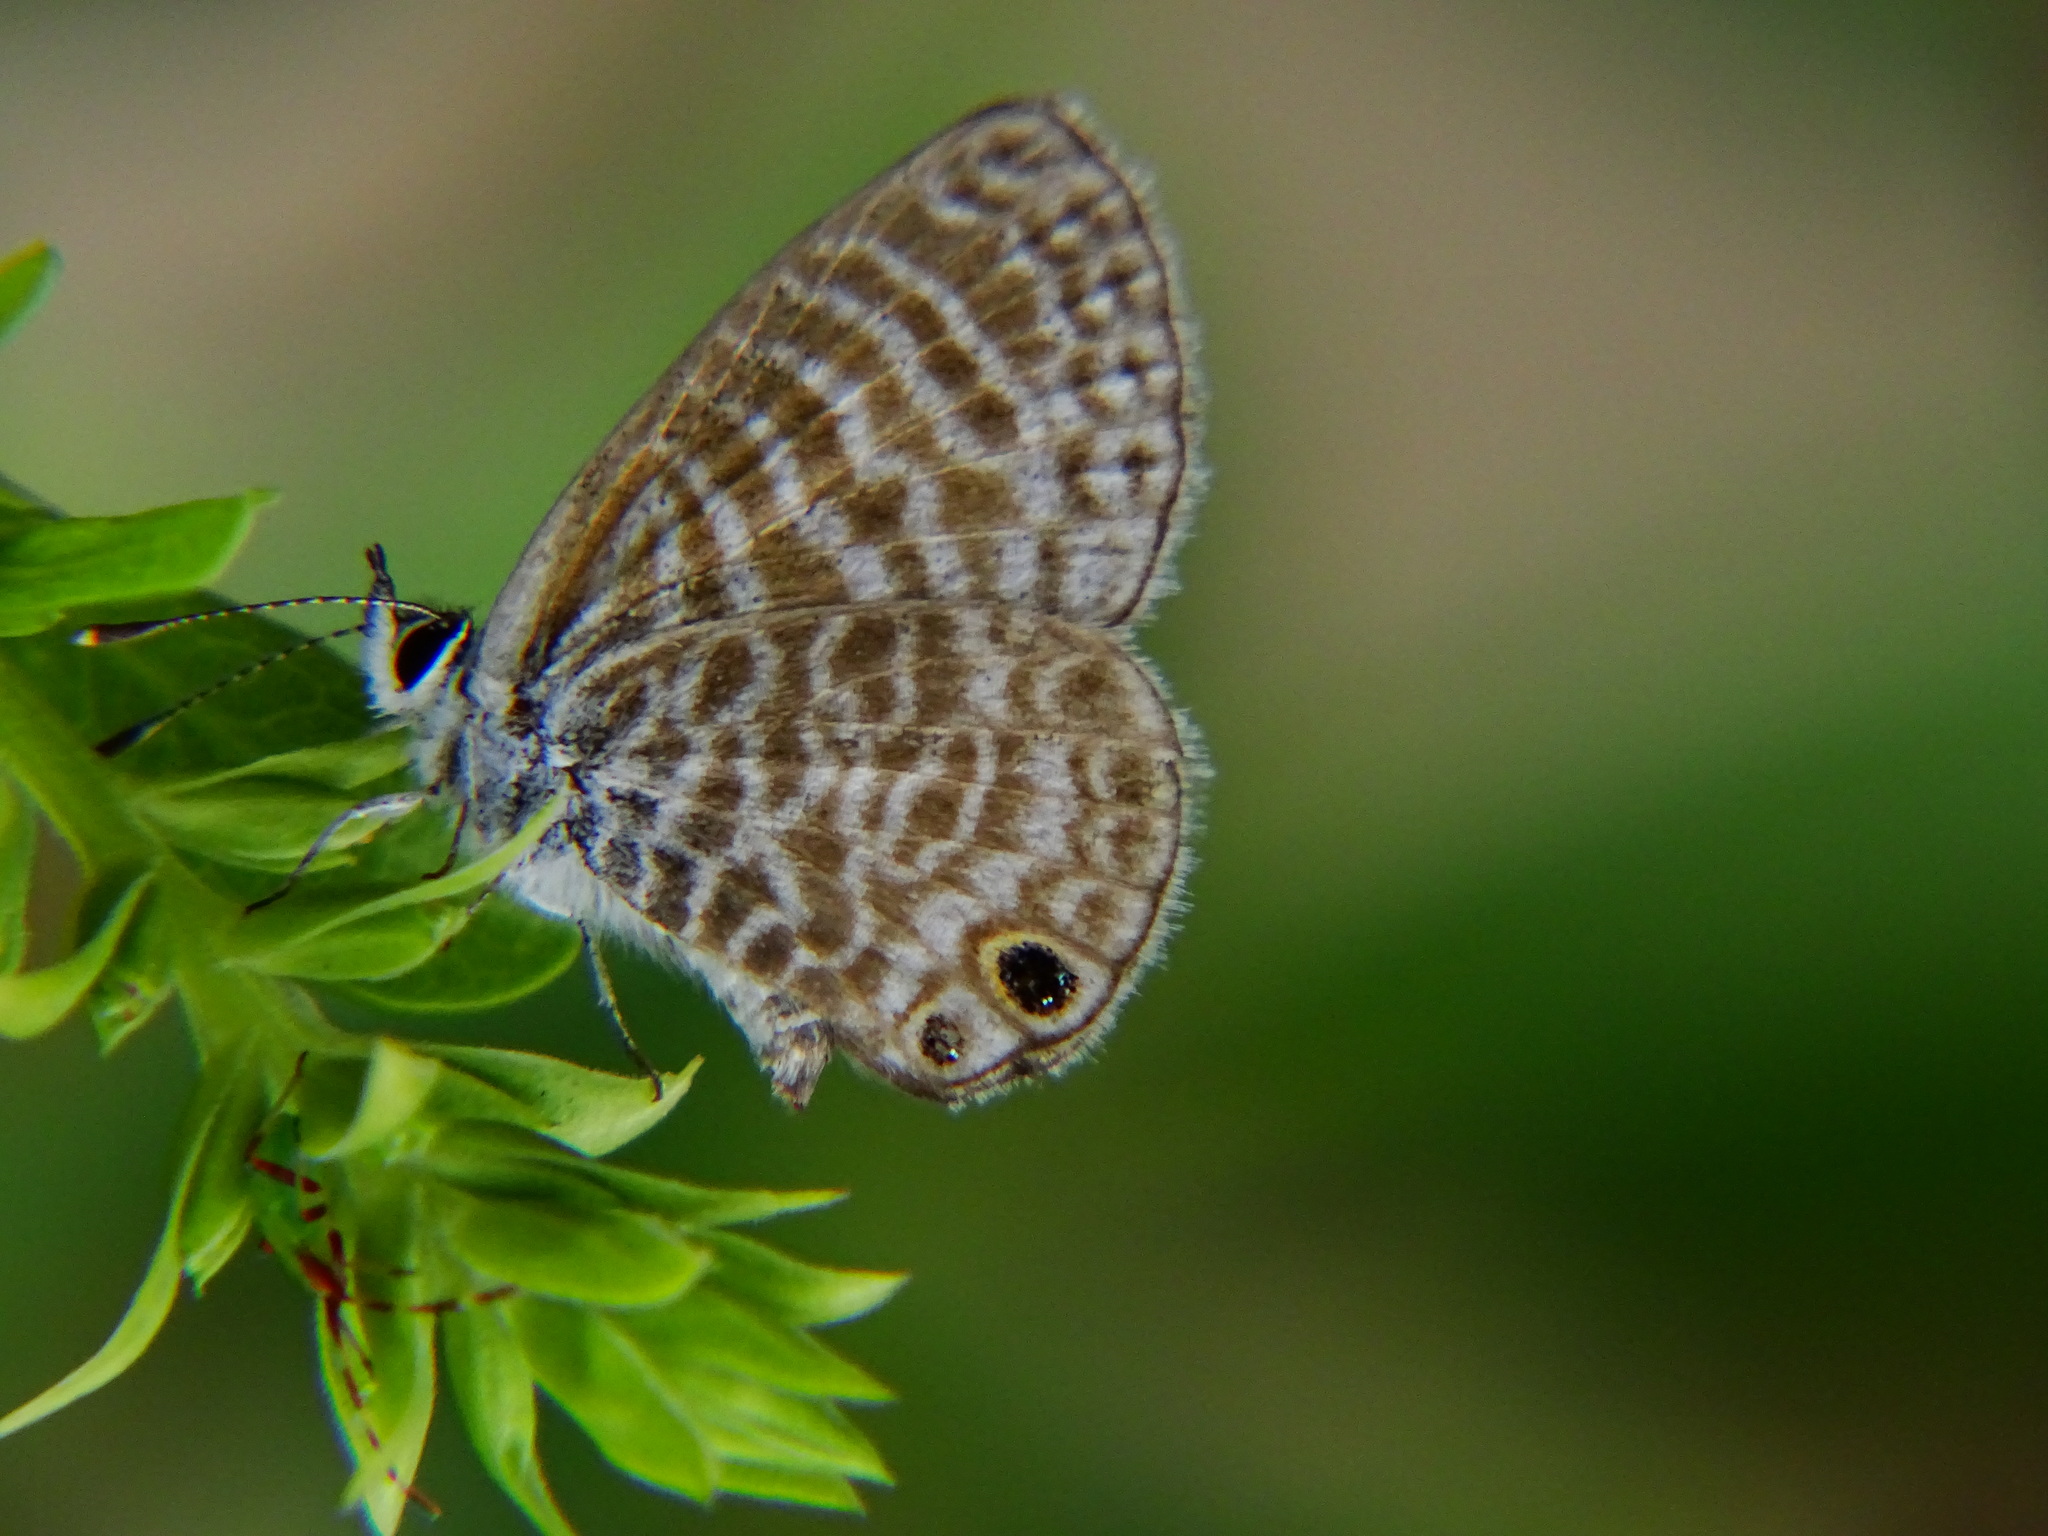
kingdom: Animalia
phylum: Arthropoda
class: Insecta
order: Lepidoptera
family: Lycaenidae
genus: Leptotes
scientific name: Leptotes marina
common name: Marine blue
